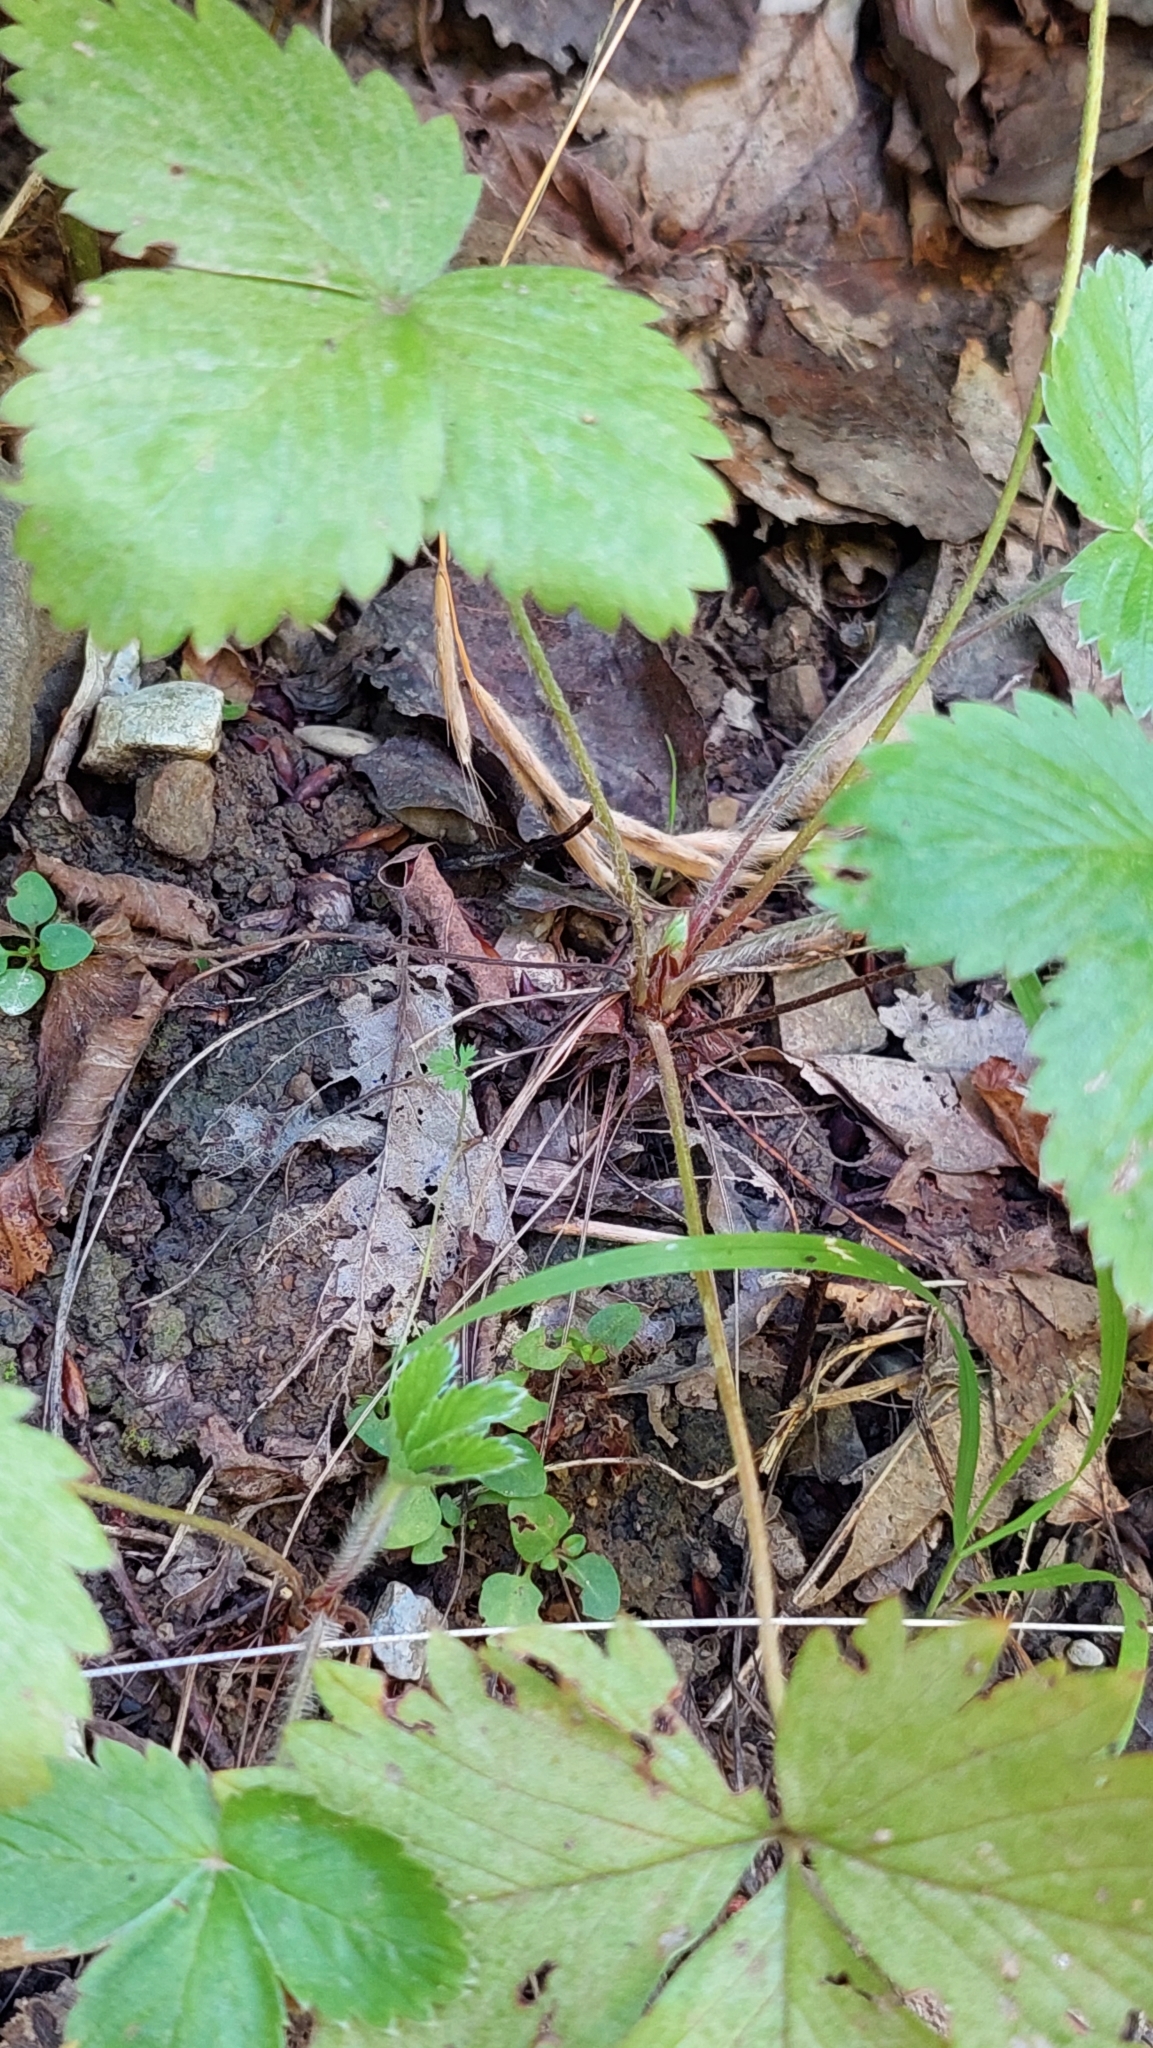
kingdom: Plantae
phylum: Tracheophyta
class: Magnoliopsida
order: Rosales
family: Rosaceae
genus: Fragaria
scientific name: Fragaria vesca
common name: Wild strawberry
